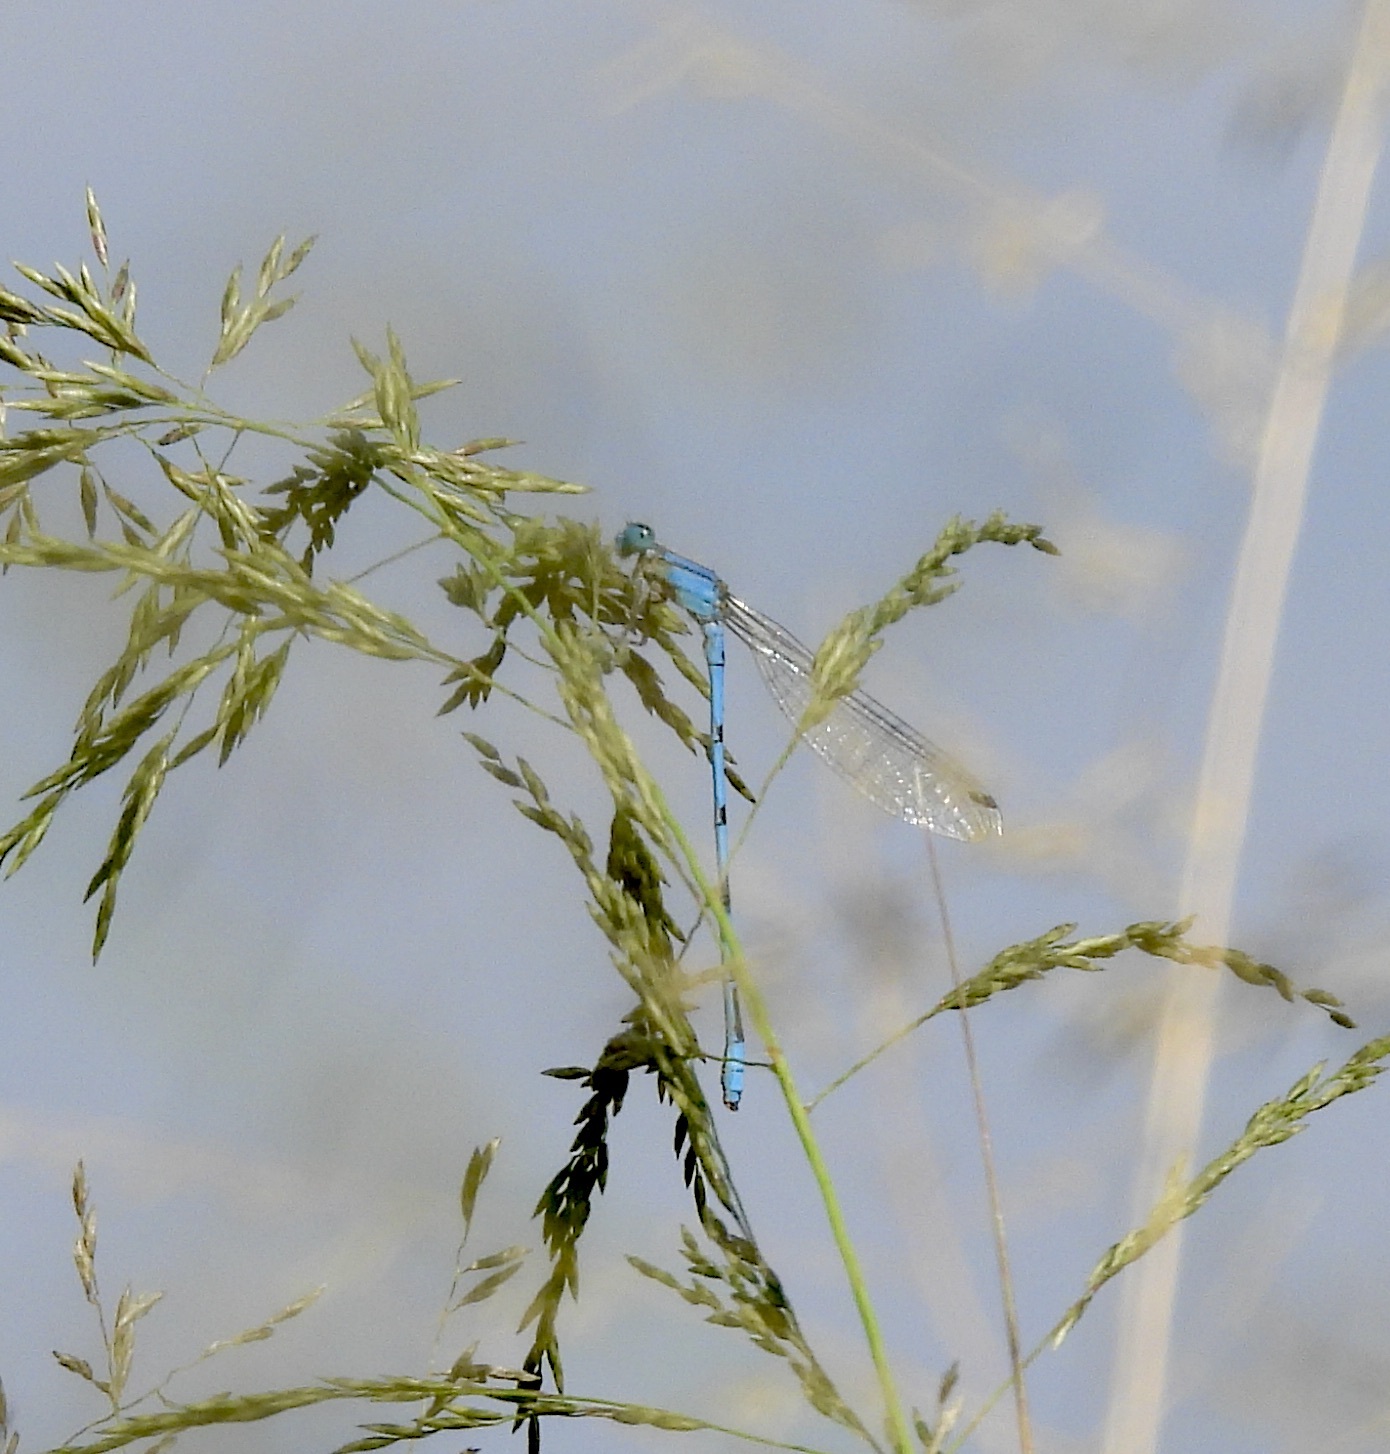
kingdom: Animalia
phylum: Arthropoda
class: Insecta
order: Odonata
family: Coenagrionidae
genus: Enallagma
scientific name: Enallagma civile
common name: Damselfly
